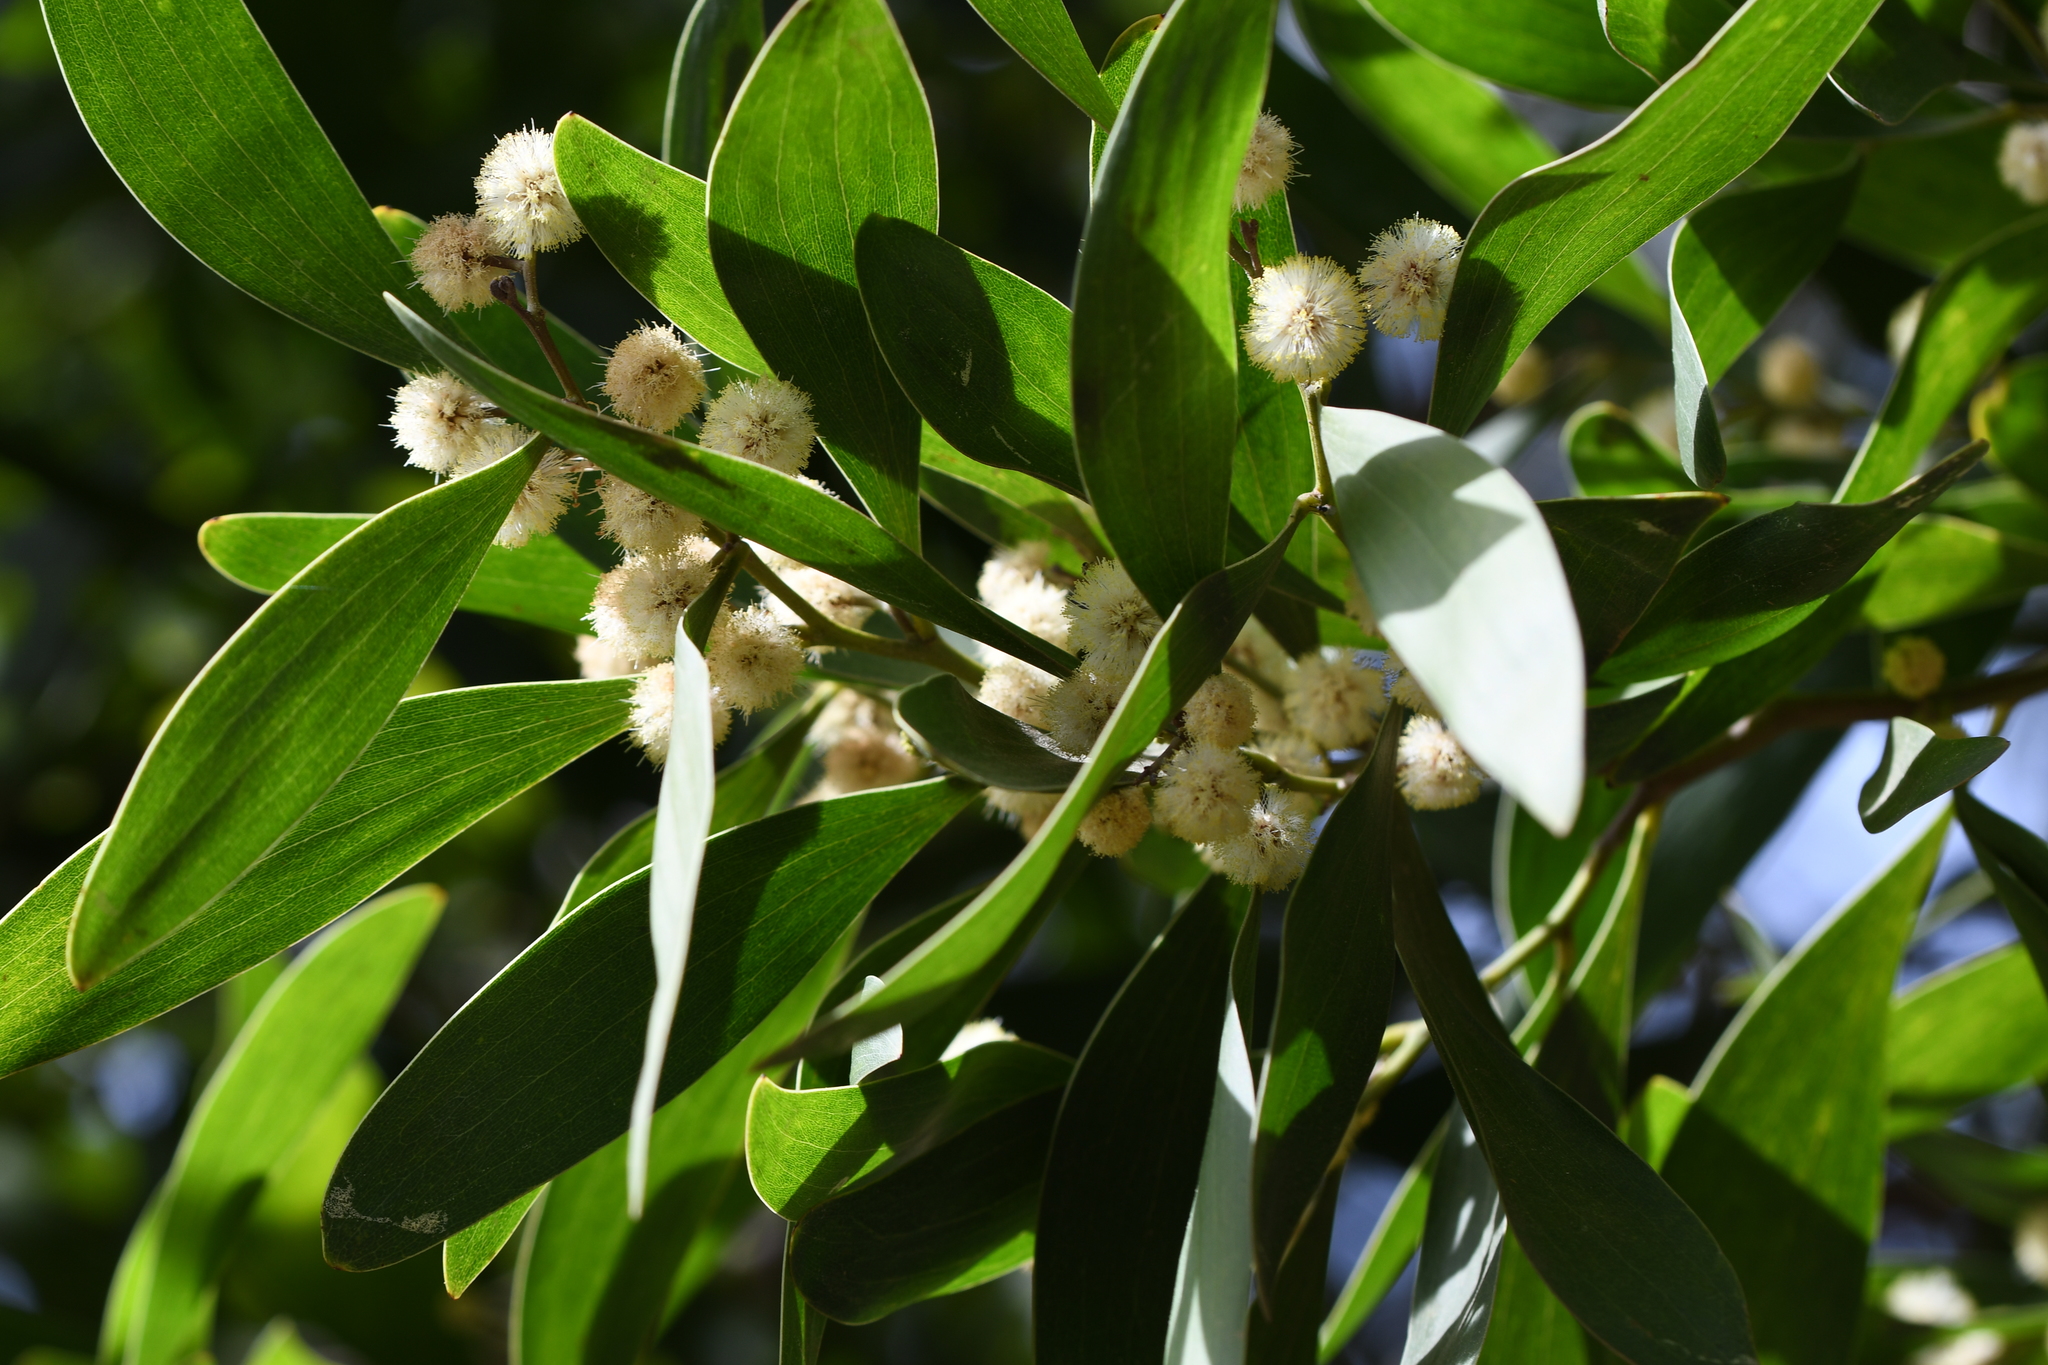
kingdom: Plantae
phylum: Tracheophyta
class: Magnoliopsida
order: Fabales
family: Fabaceae
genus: Acacia
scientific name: Acacia melanoxylon
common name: Blackwood
